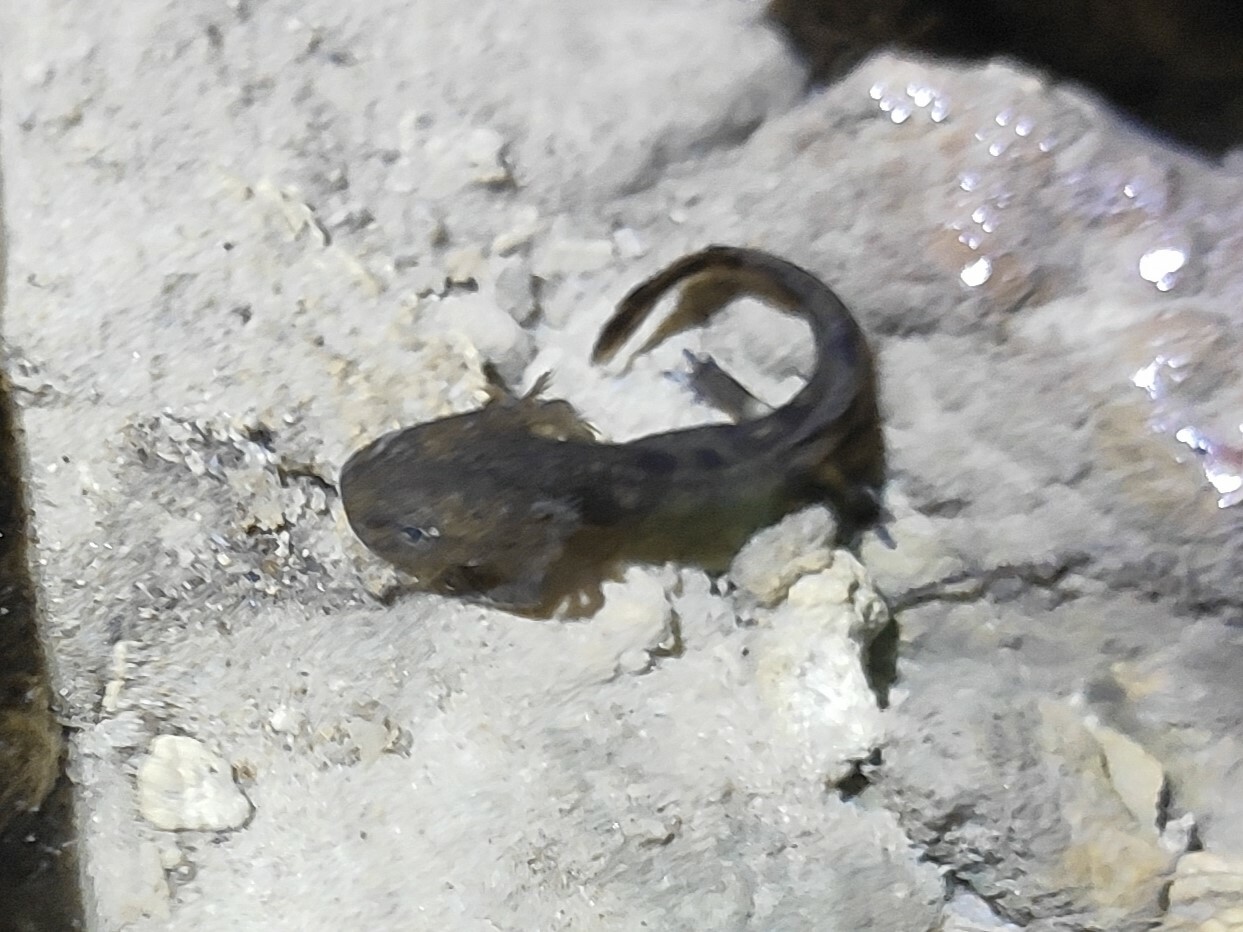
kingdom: Animalia
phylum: Chordata
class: Amphibia
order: Caudata
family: Salamandridae
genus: Salamandra
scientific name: Salamandra salamandra
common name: Fire salamander
